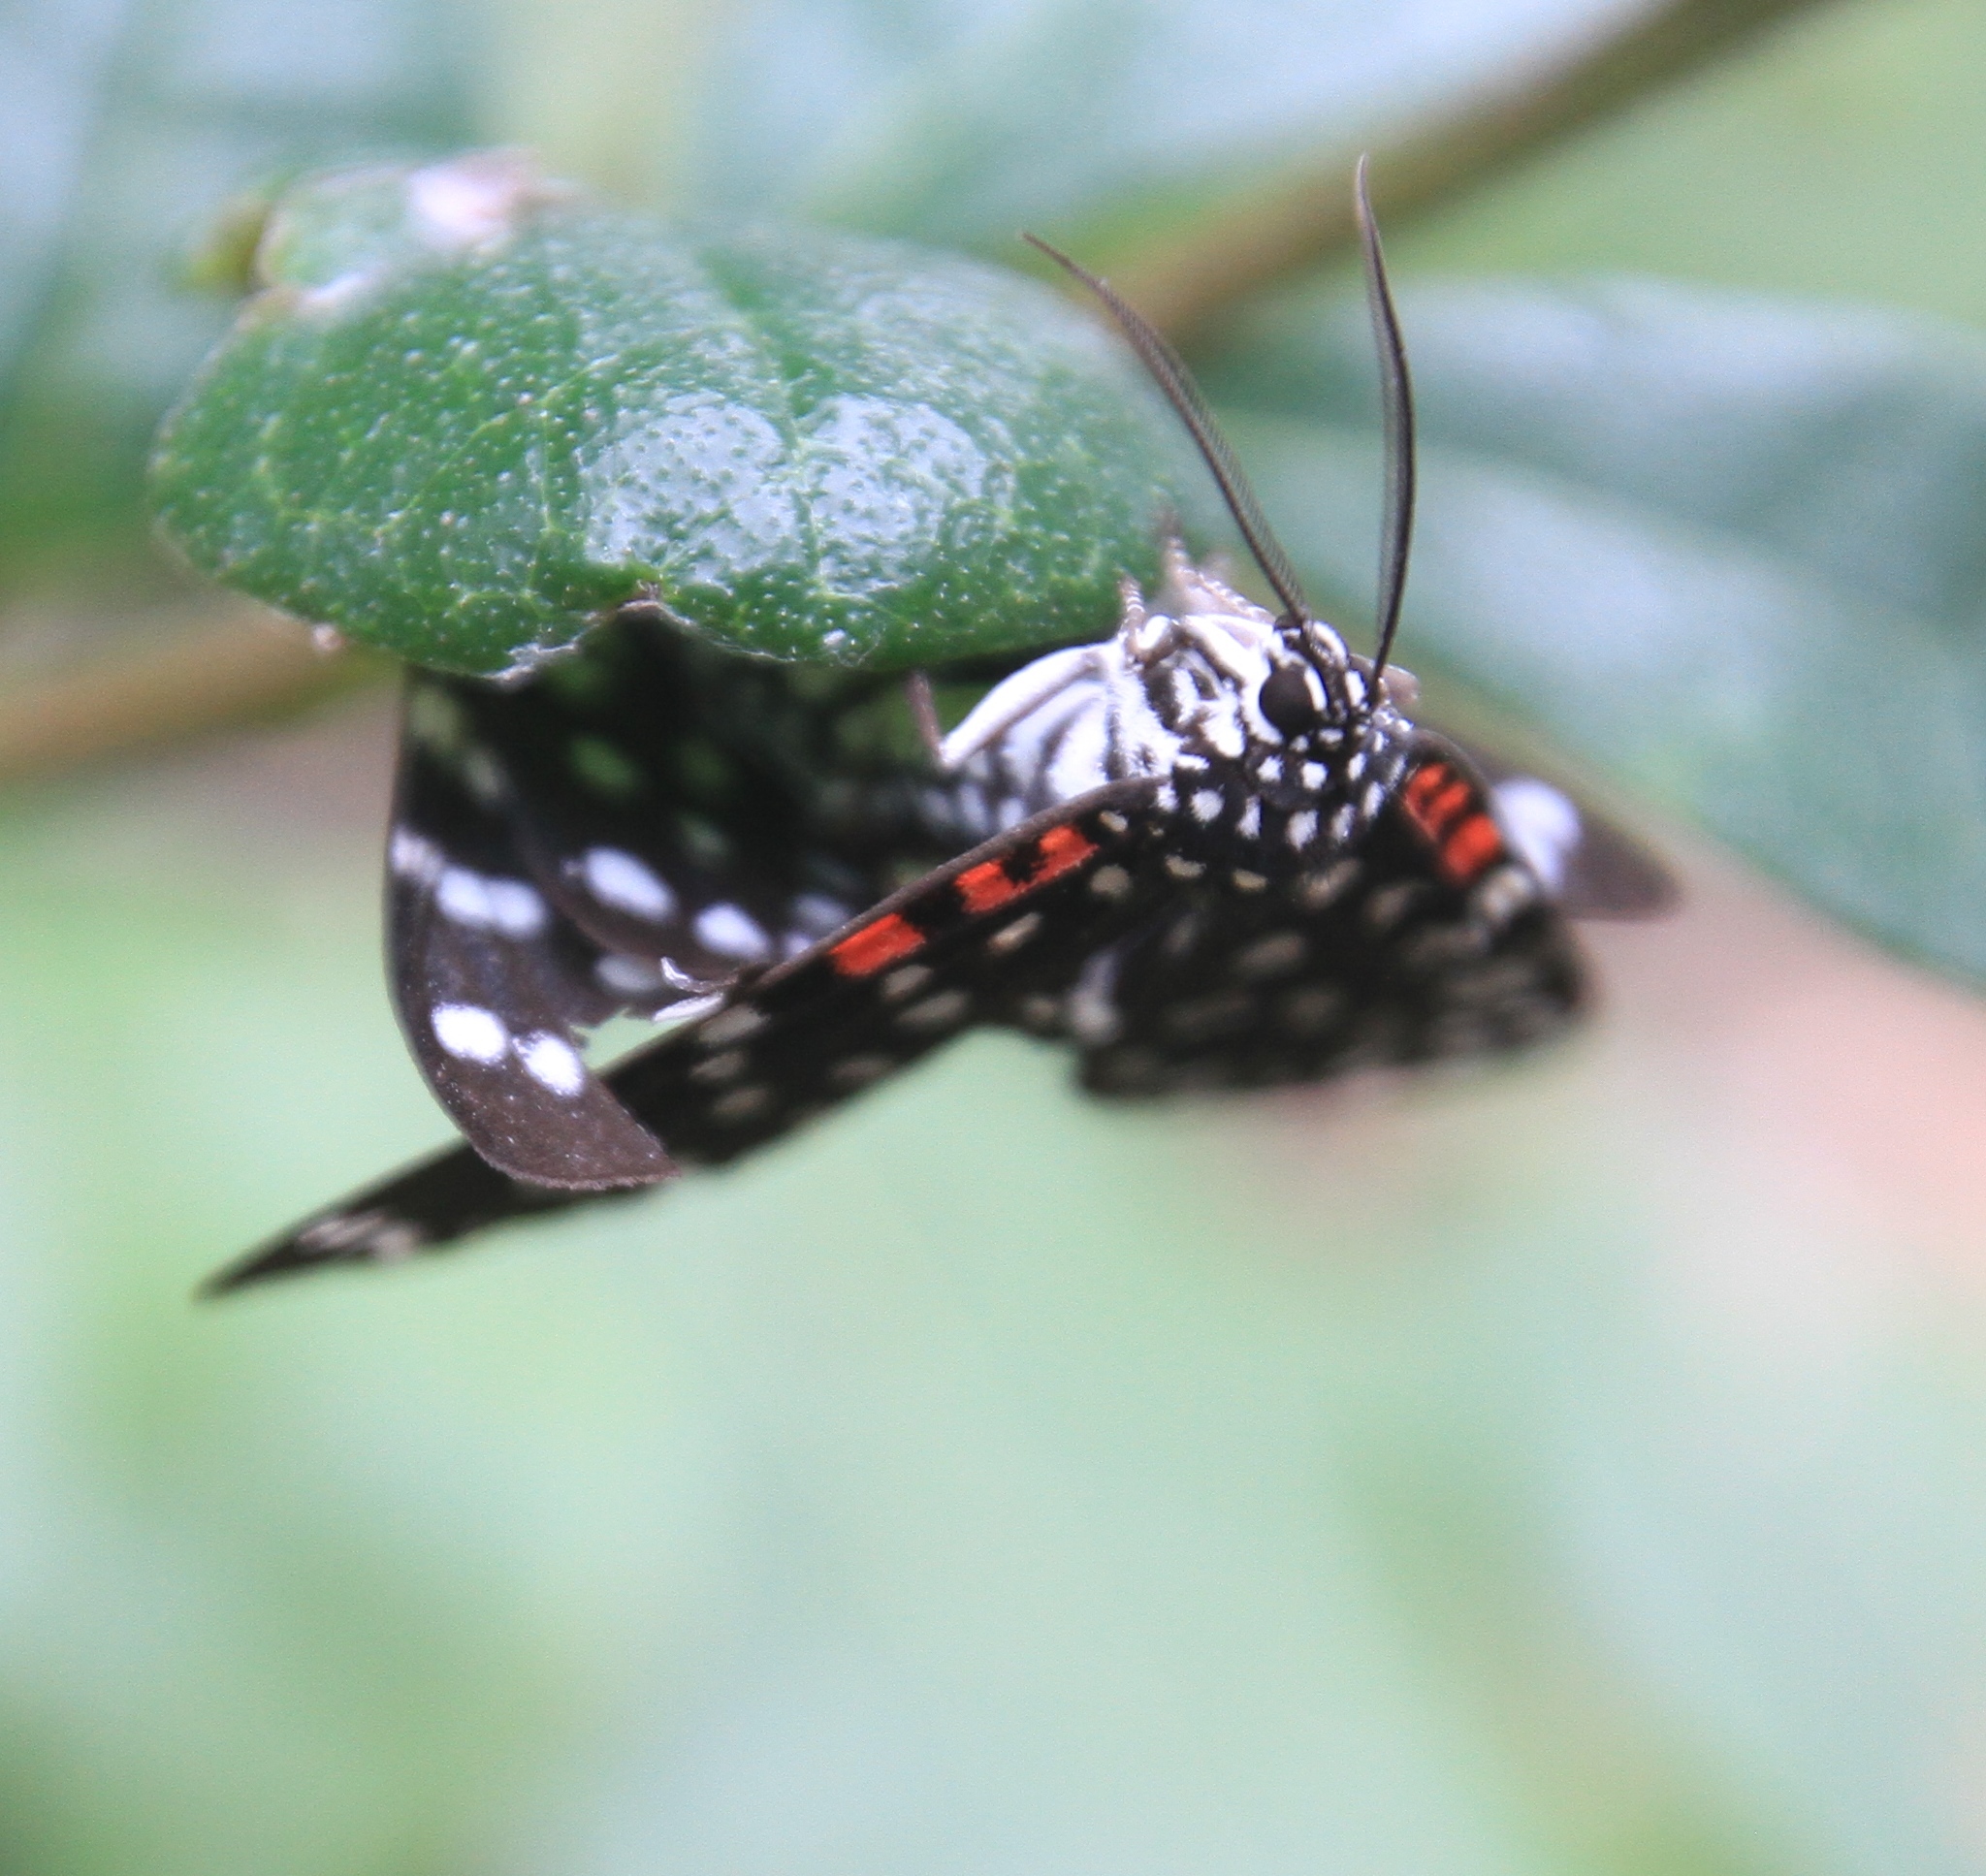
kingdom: Animalia
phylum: Arthropoda
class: Insecta
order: Lepidoptera
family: Erebidae
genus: Composia
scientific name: Composia credula
